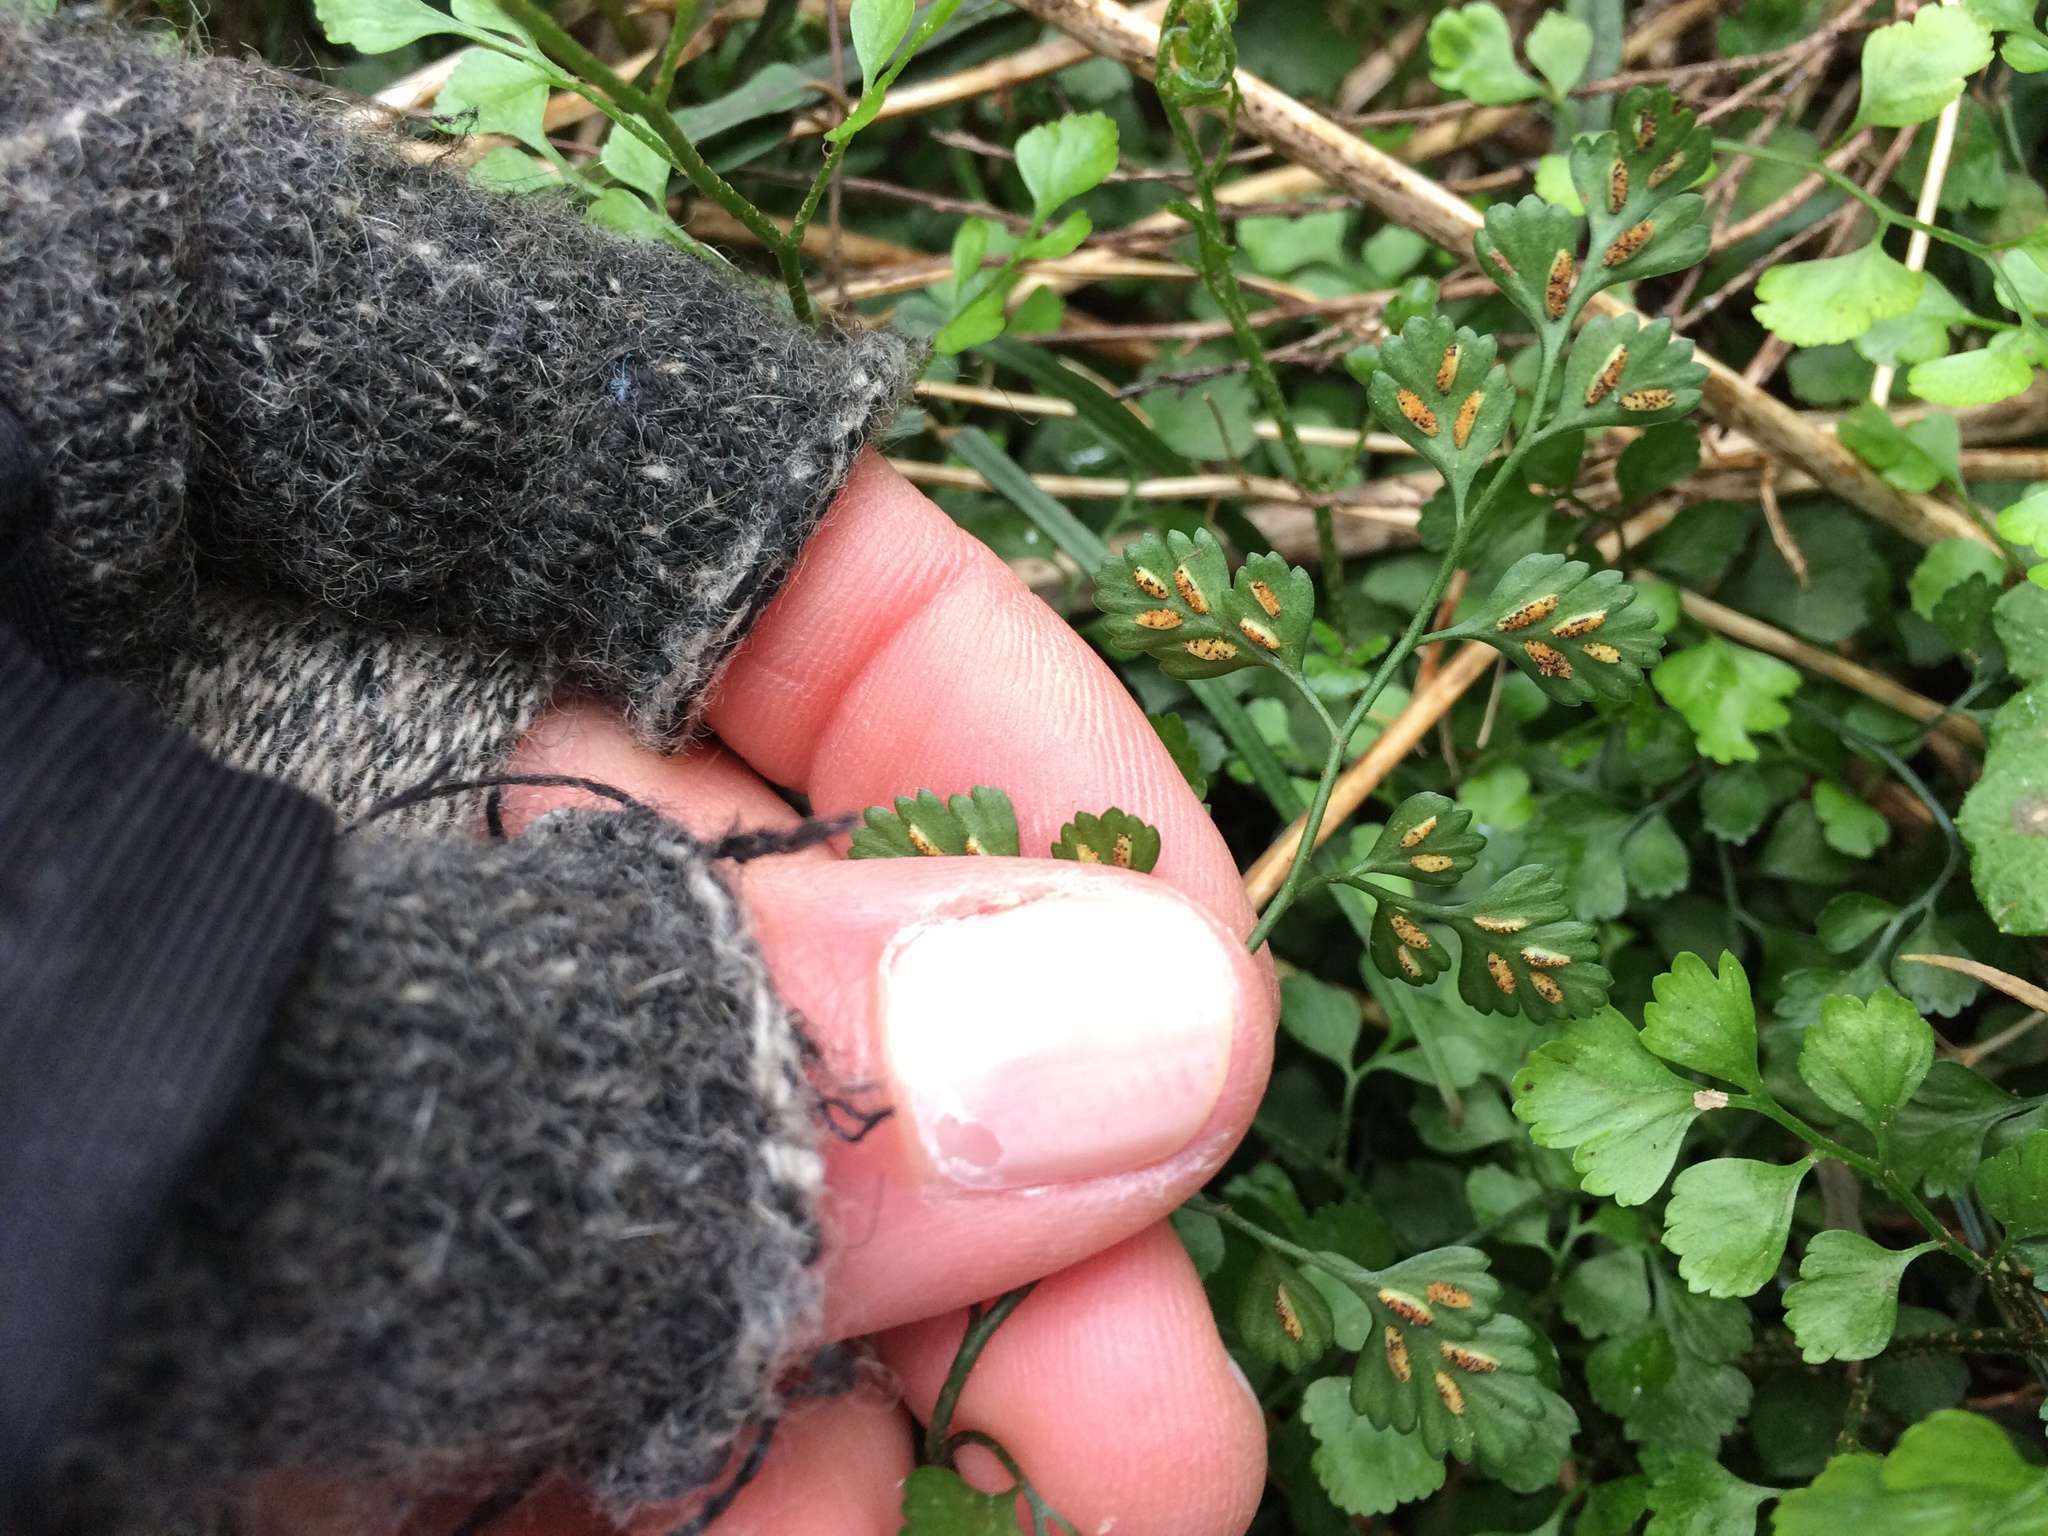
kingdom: Plantae
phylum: Tracheophyta
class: Polypodiopsida
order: Polypodiales
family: Aspleniaceae
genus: Asplenium
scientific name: Asplenium hookerianum
